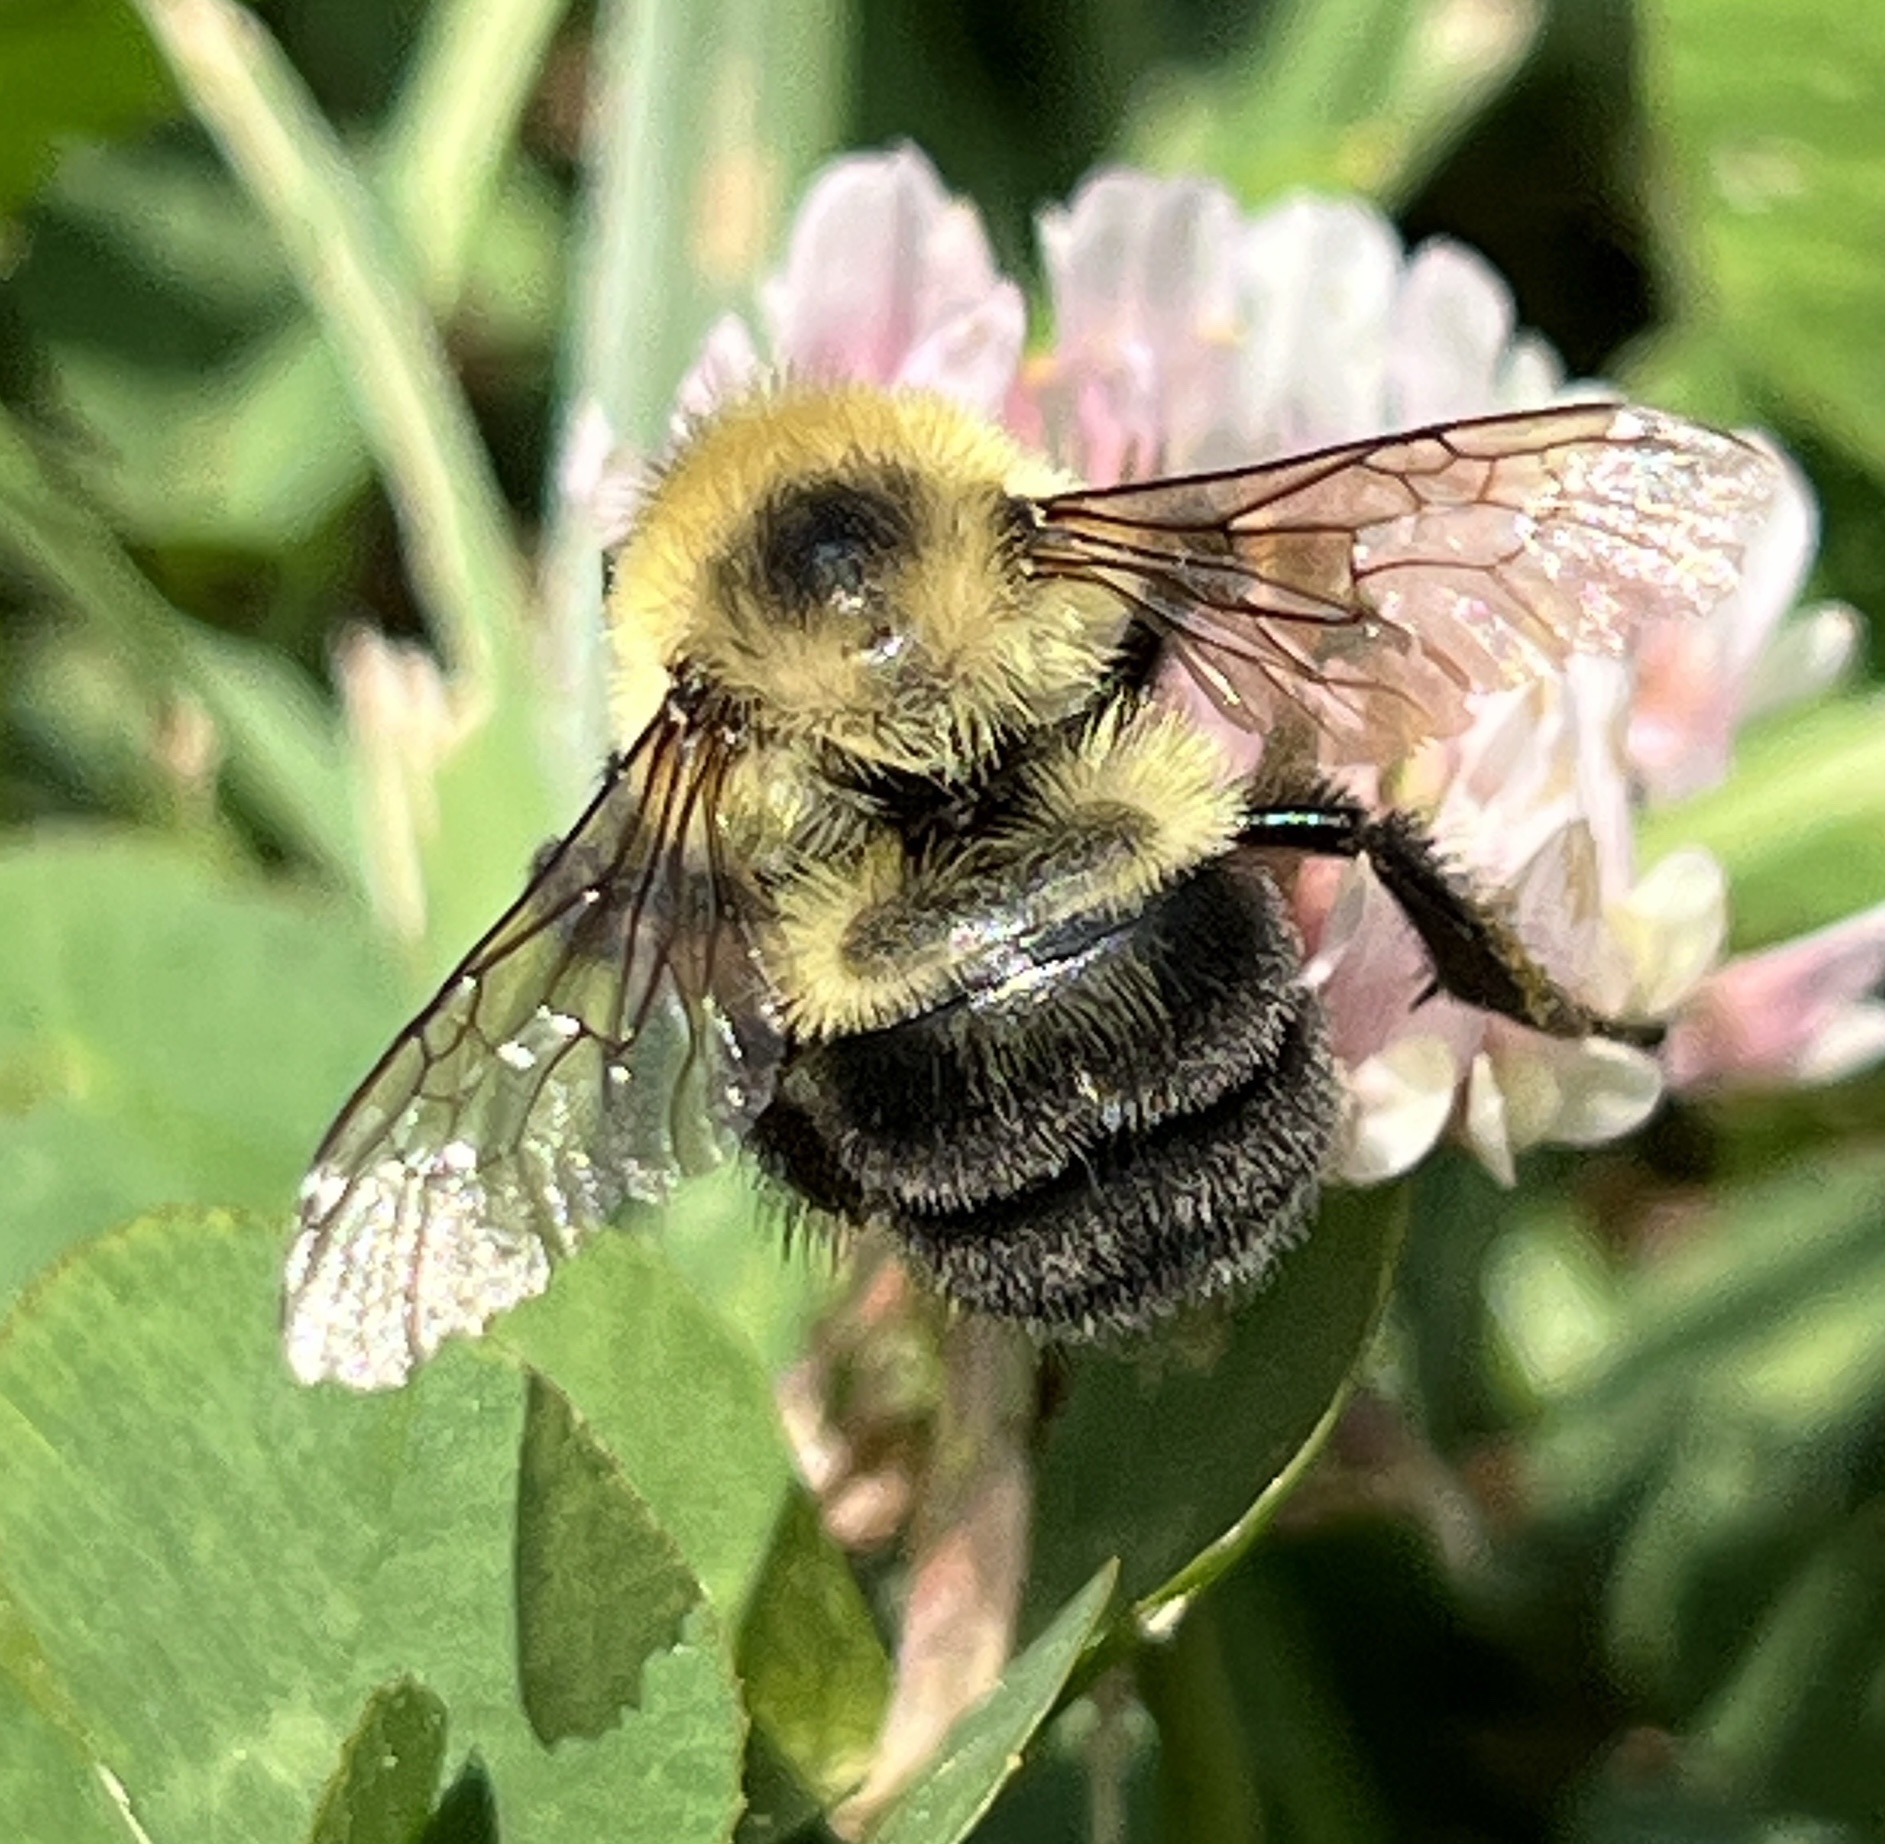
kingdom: Animalia
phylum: Arthropoda
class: Insecta
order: Hymenoptera
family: Apidae
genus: Bombus
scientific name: Bombus bimaculatus
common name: Two-spotted bumble bee
